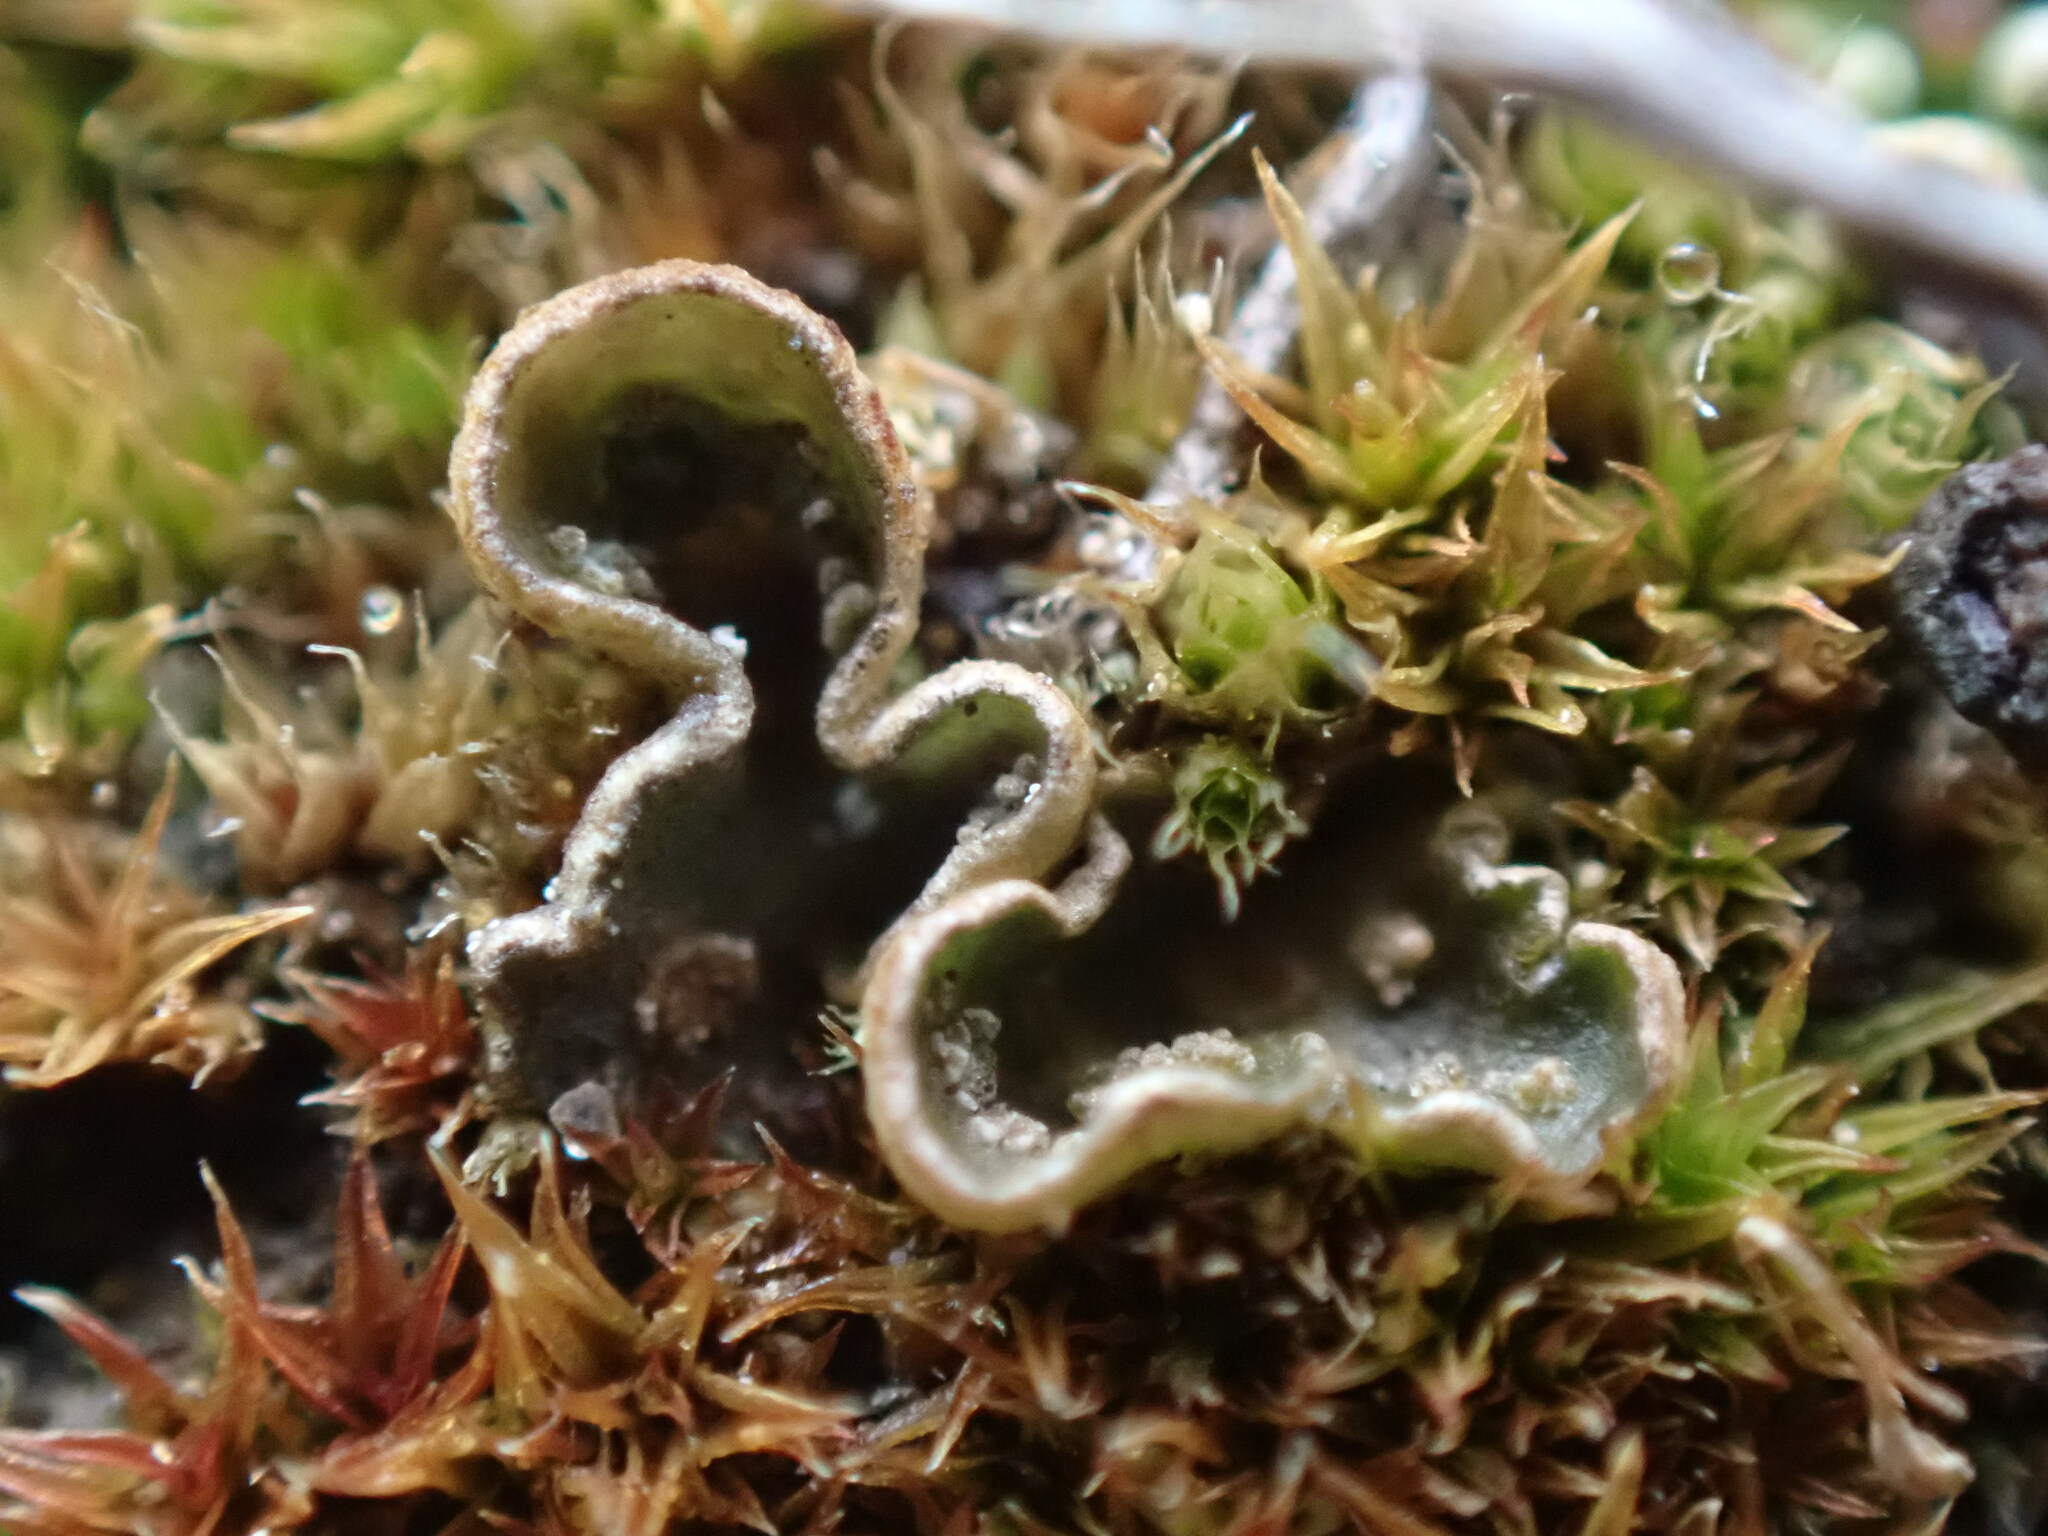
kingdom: Fungi
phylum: Ascomycota
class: Lecanoromycetes
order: Peltigerales
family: Peltigeraceae
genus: Peltigera
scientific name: Peltigera didactyla
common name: Alternating dog lichen
